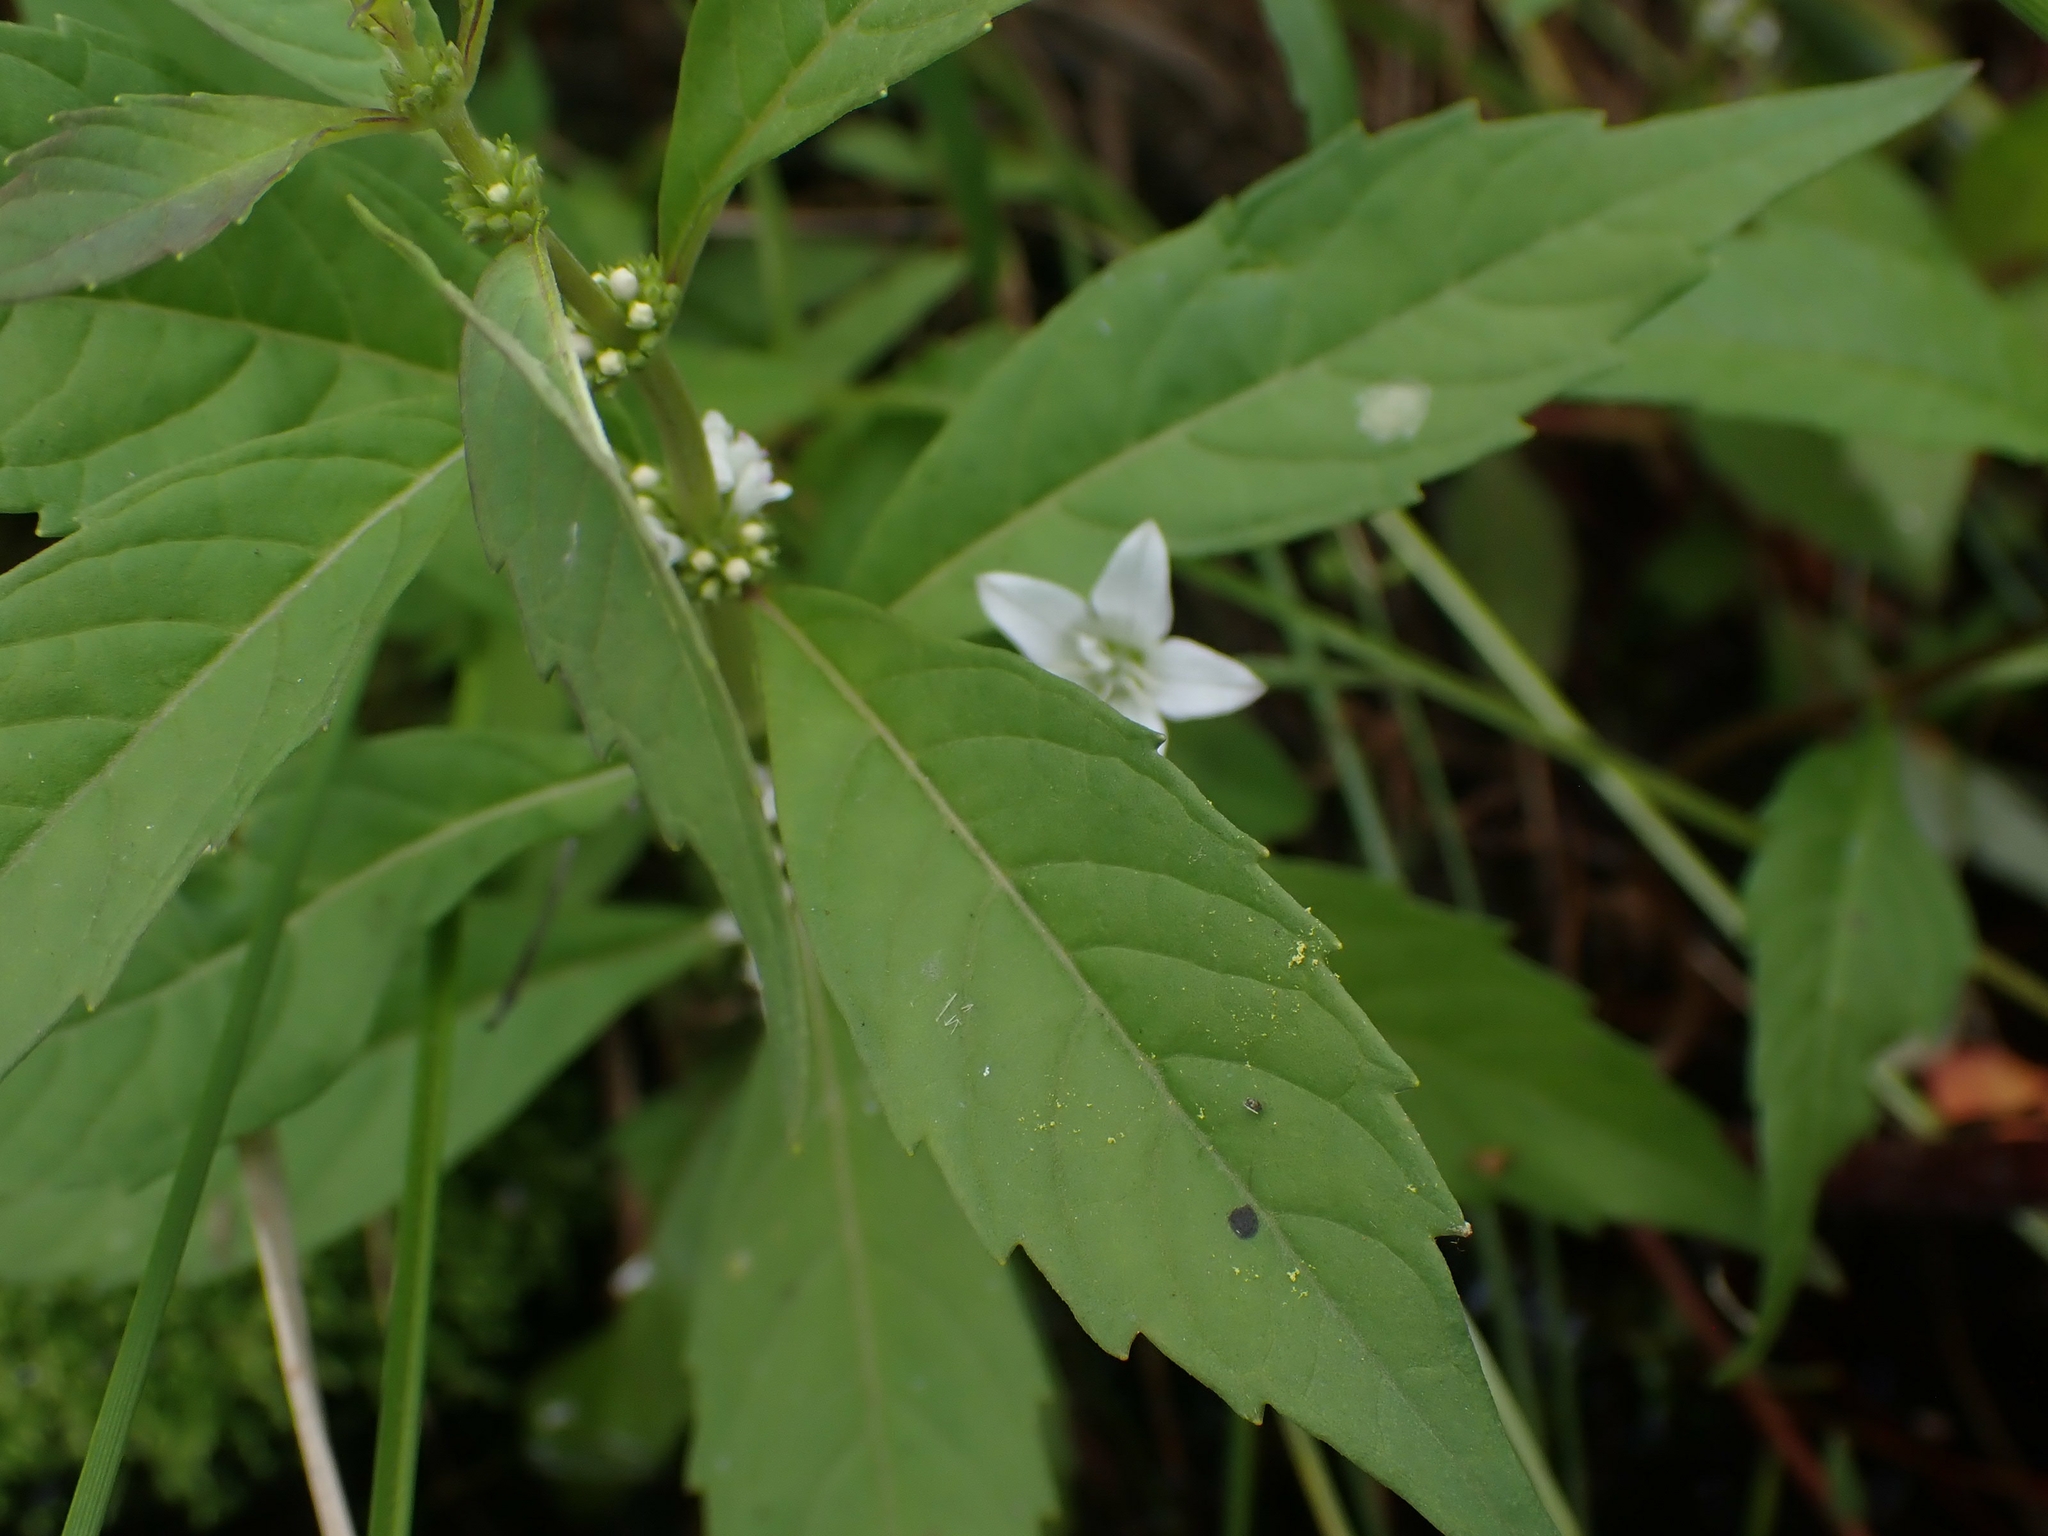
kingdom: Plantae
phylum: Tracheophyta
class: Magnoliopsida
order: Lamiales
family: Lamiaceae
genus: Lycopus
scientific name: Lycopus uniflorus
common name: Northern bugleweed
